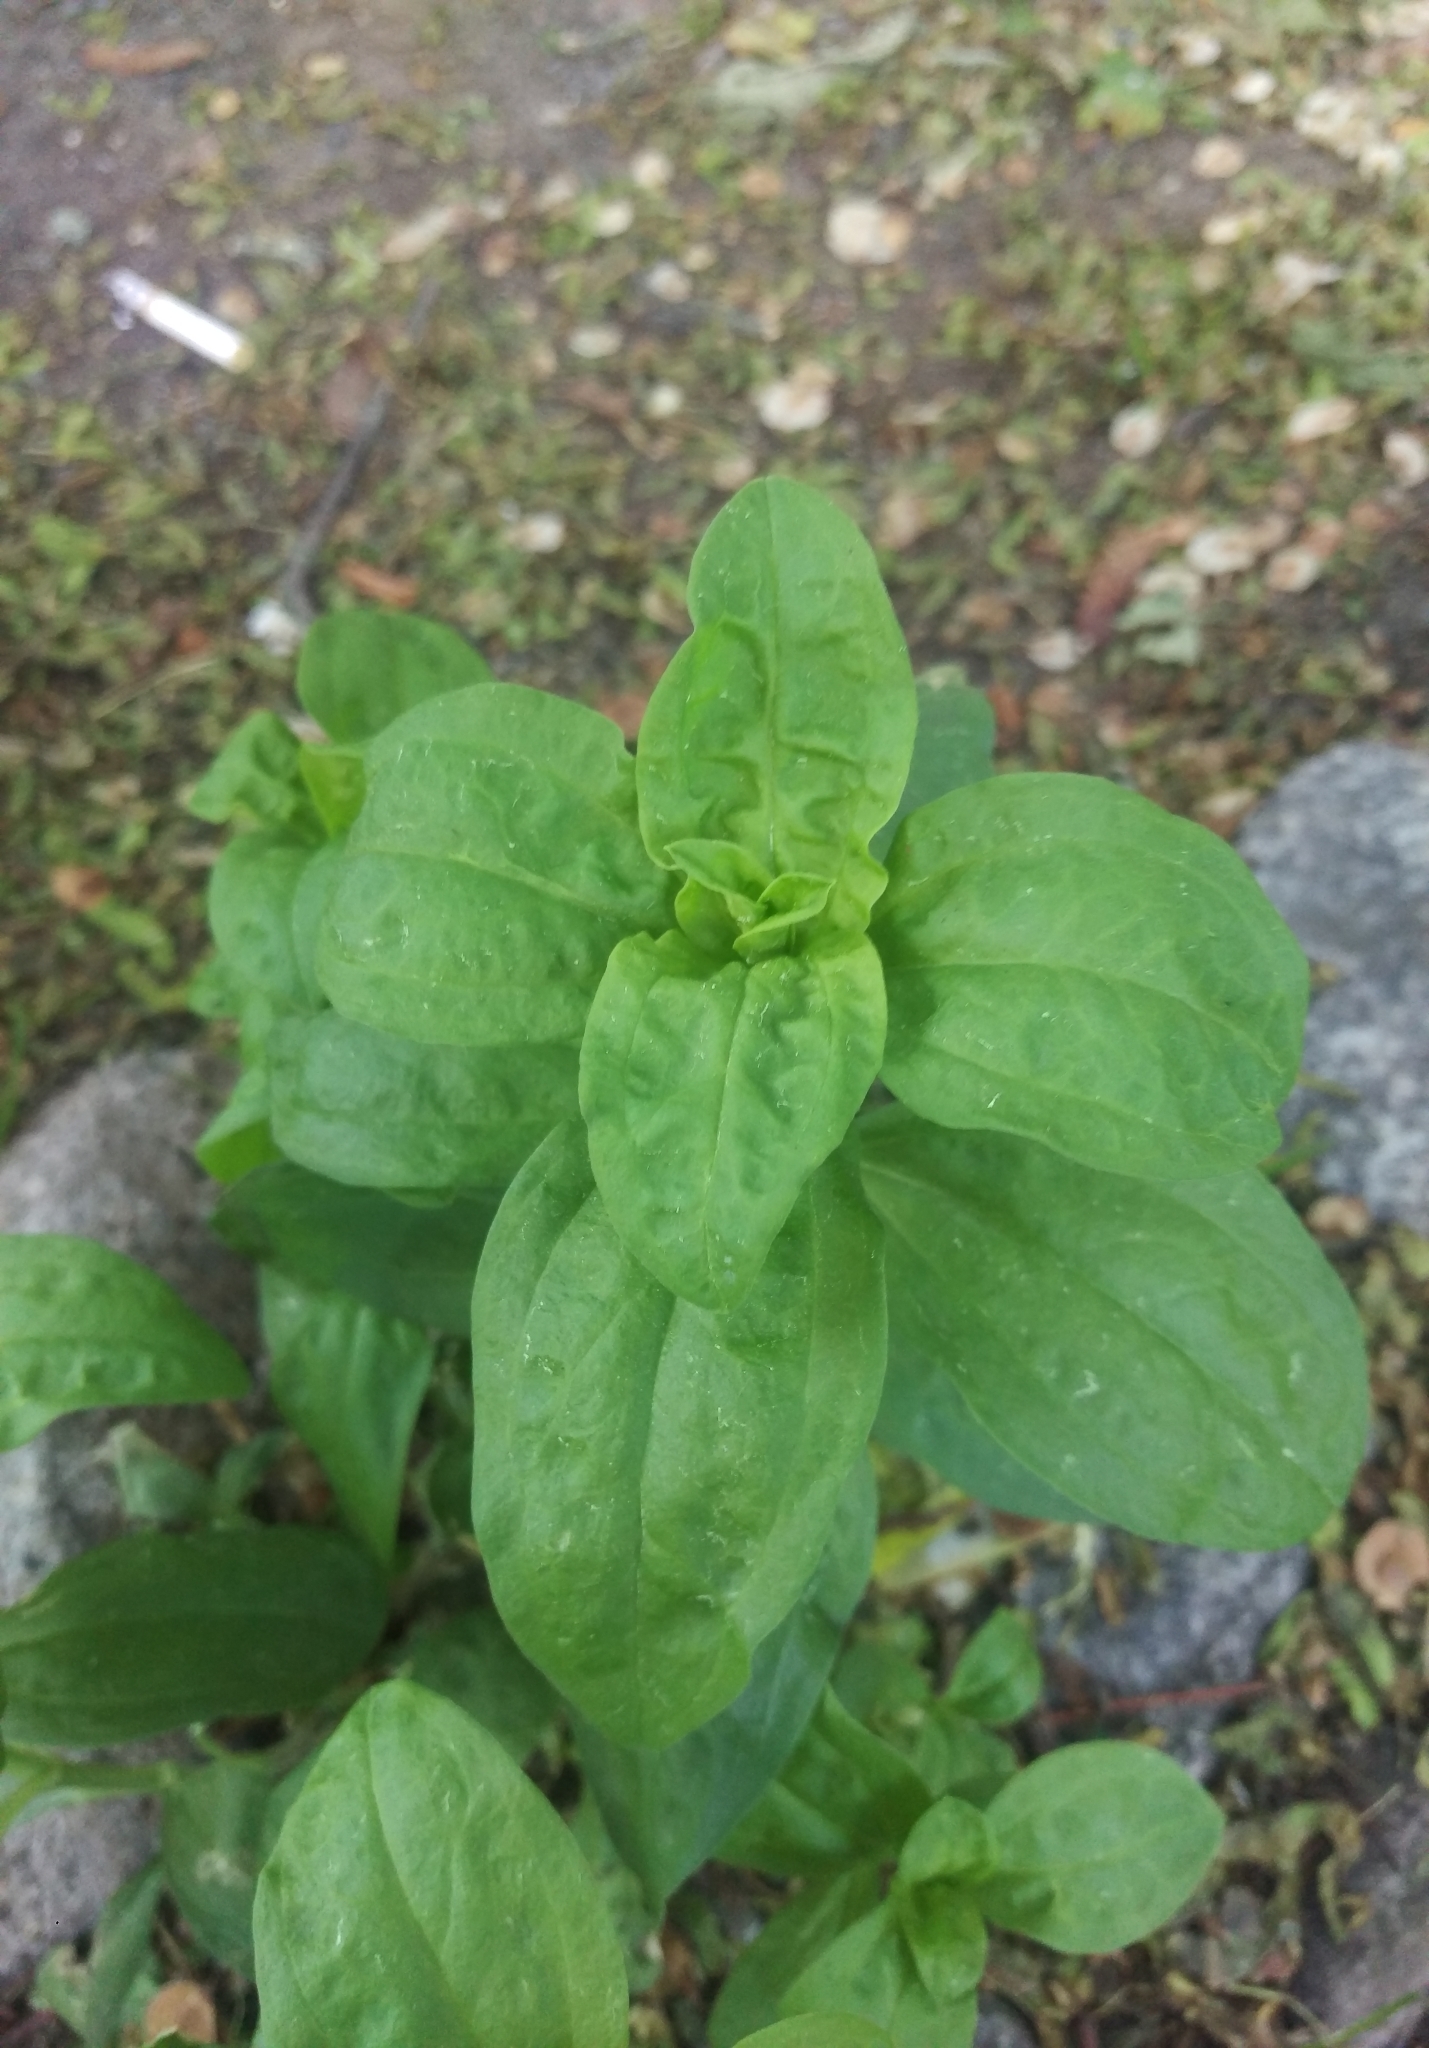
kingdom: Plantae
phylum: Tracheophyta
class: Magnoliopsida
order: Caryophyllales
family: Caryophyllaceae
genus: Saponaria
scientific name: Saponaria officinalis
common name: Soapwort
